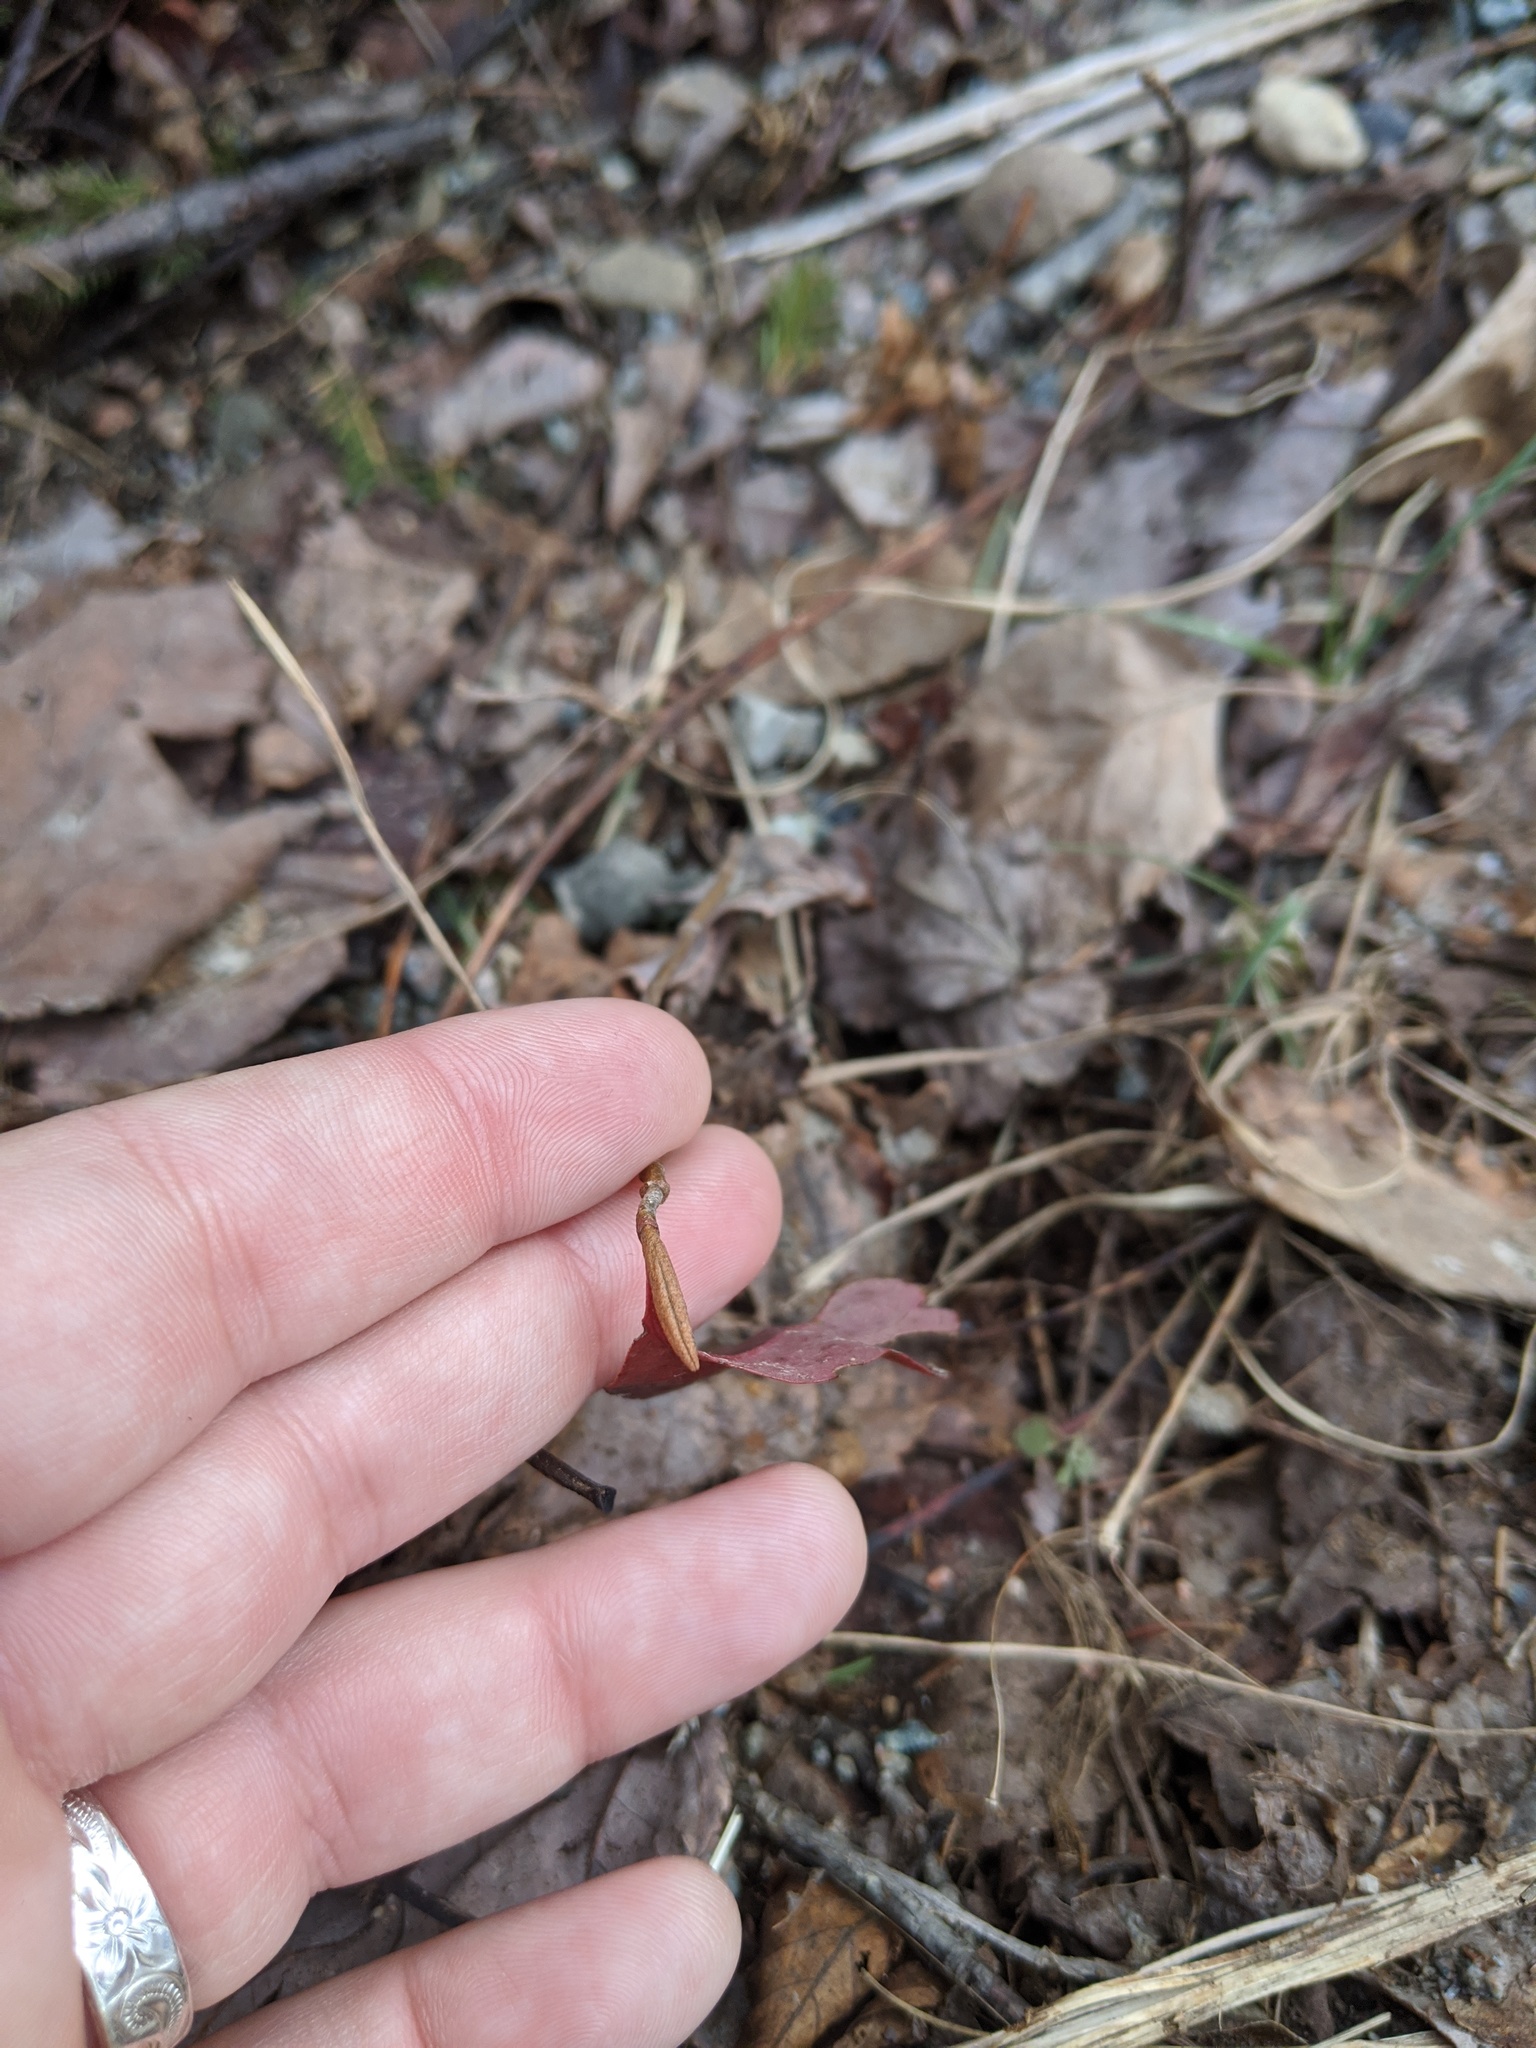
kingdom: Plantae
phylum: Tracheophyta
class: Magnoliopsida
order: Dipsacales
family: Viburnaceae
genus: Viburnum
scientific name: Viburnum cassinoides
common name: Swamp haw
